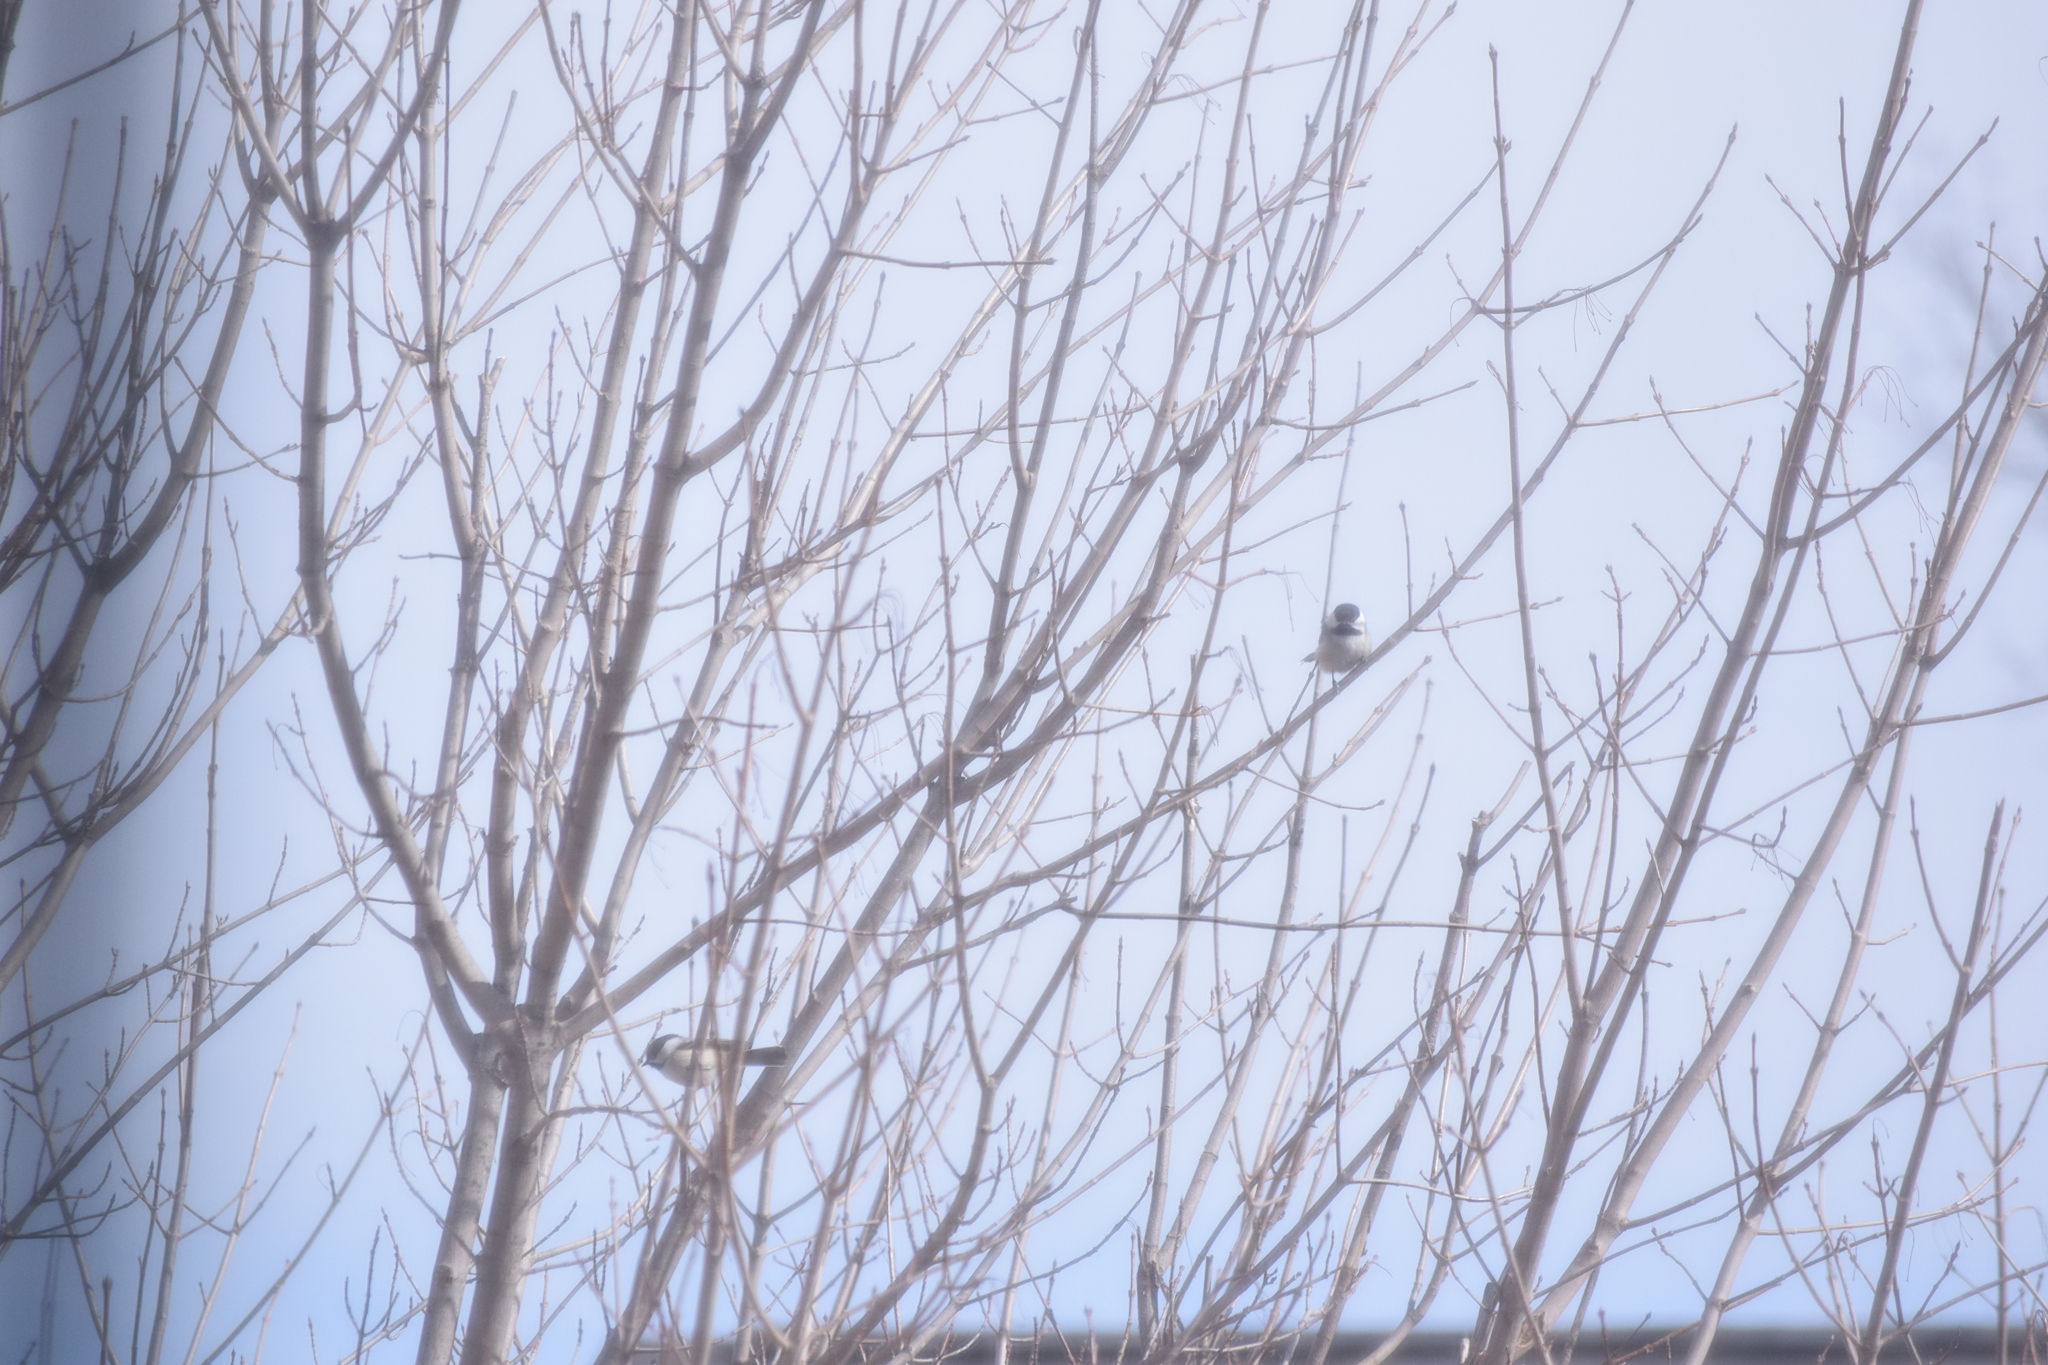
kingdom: Animalia
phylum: Chordata
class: Aves
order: Passeriformes
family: Paridae
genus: Poecile
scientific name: Poecile atricapillus
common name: Black-capped chickadee
